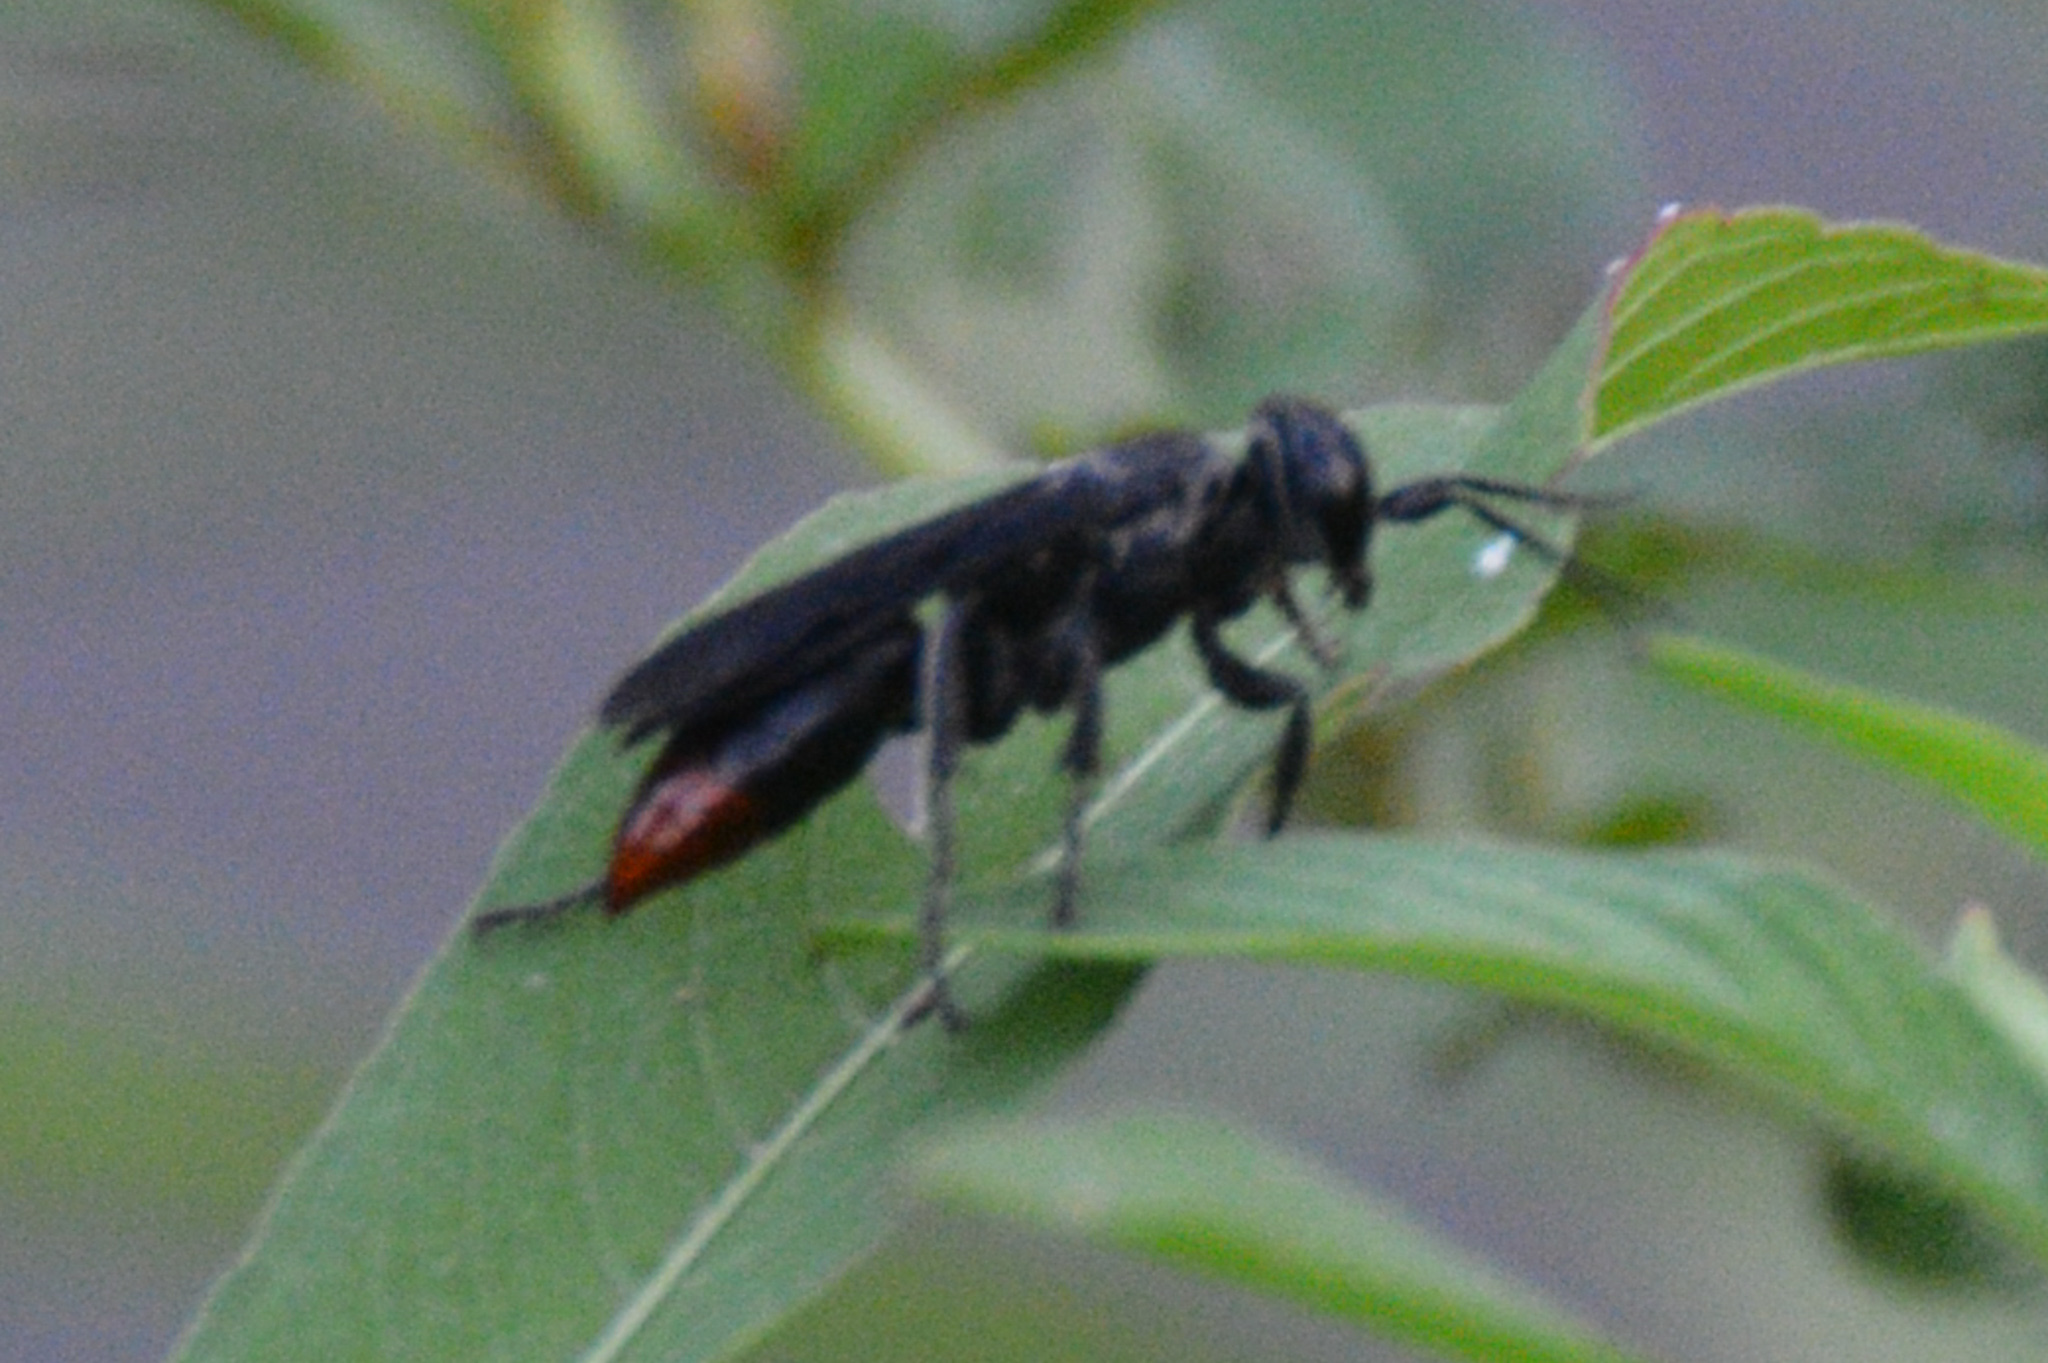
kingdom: Animalia
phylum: Arthropoda
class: Insecta
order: Hymenoptera
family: Crabronidae
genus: Larra
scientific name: Larra analis
